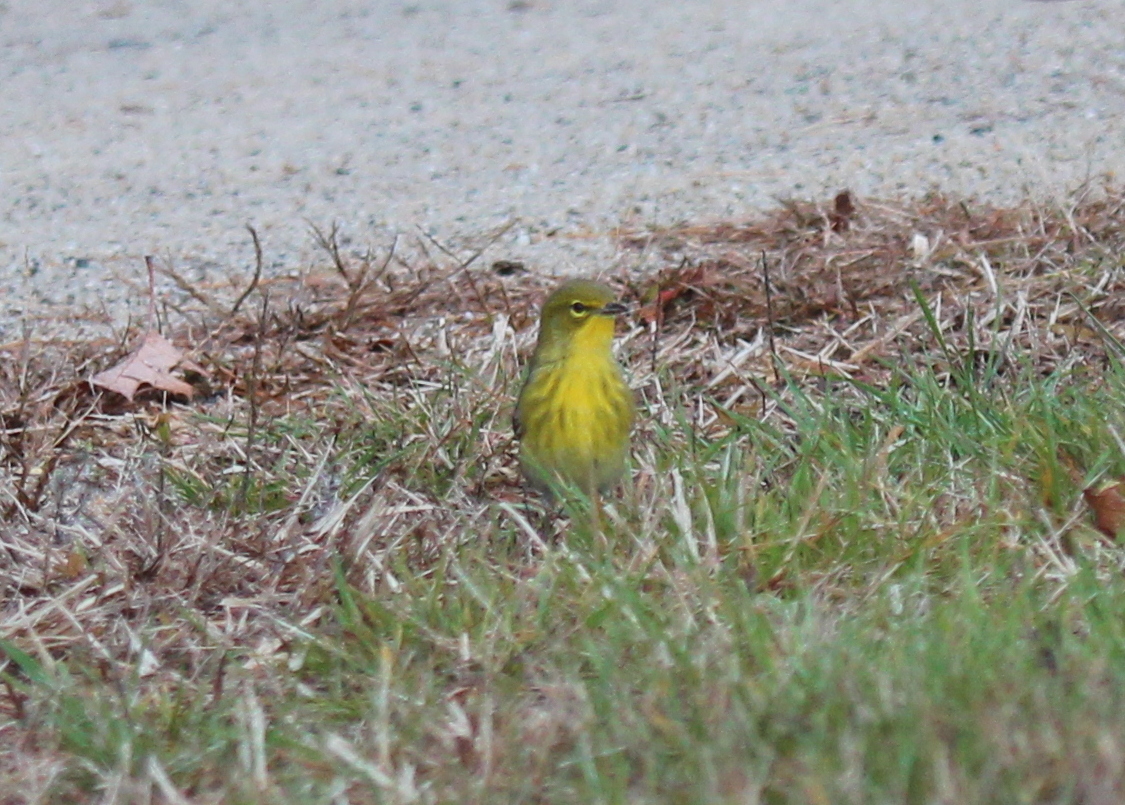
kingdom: Animalia
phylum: Chordata
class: Aves
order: Passeriformes
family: Parulidae
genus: Setophaga
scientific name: Setophaga pinus
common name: Pine warbler
